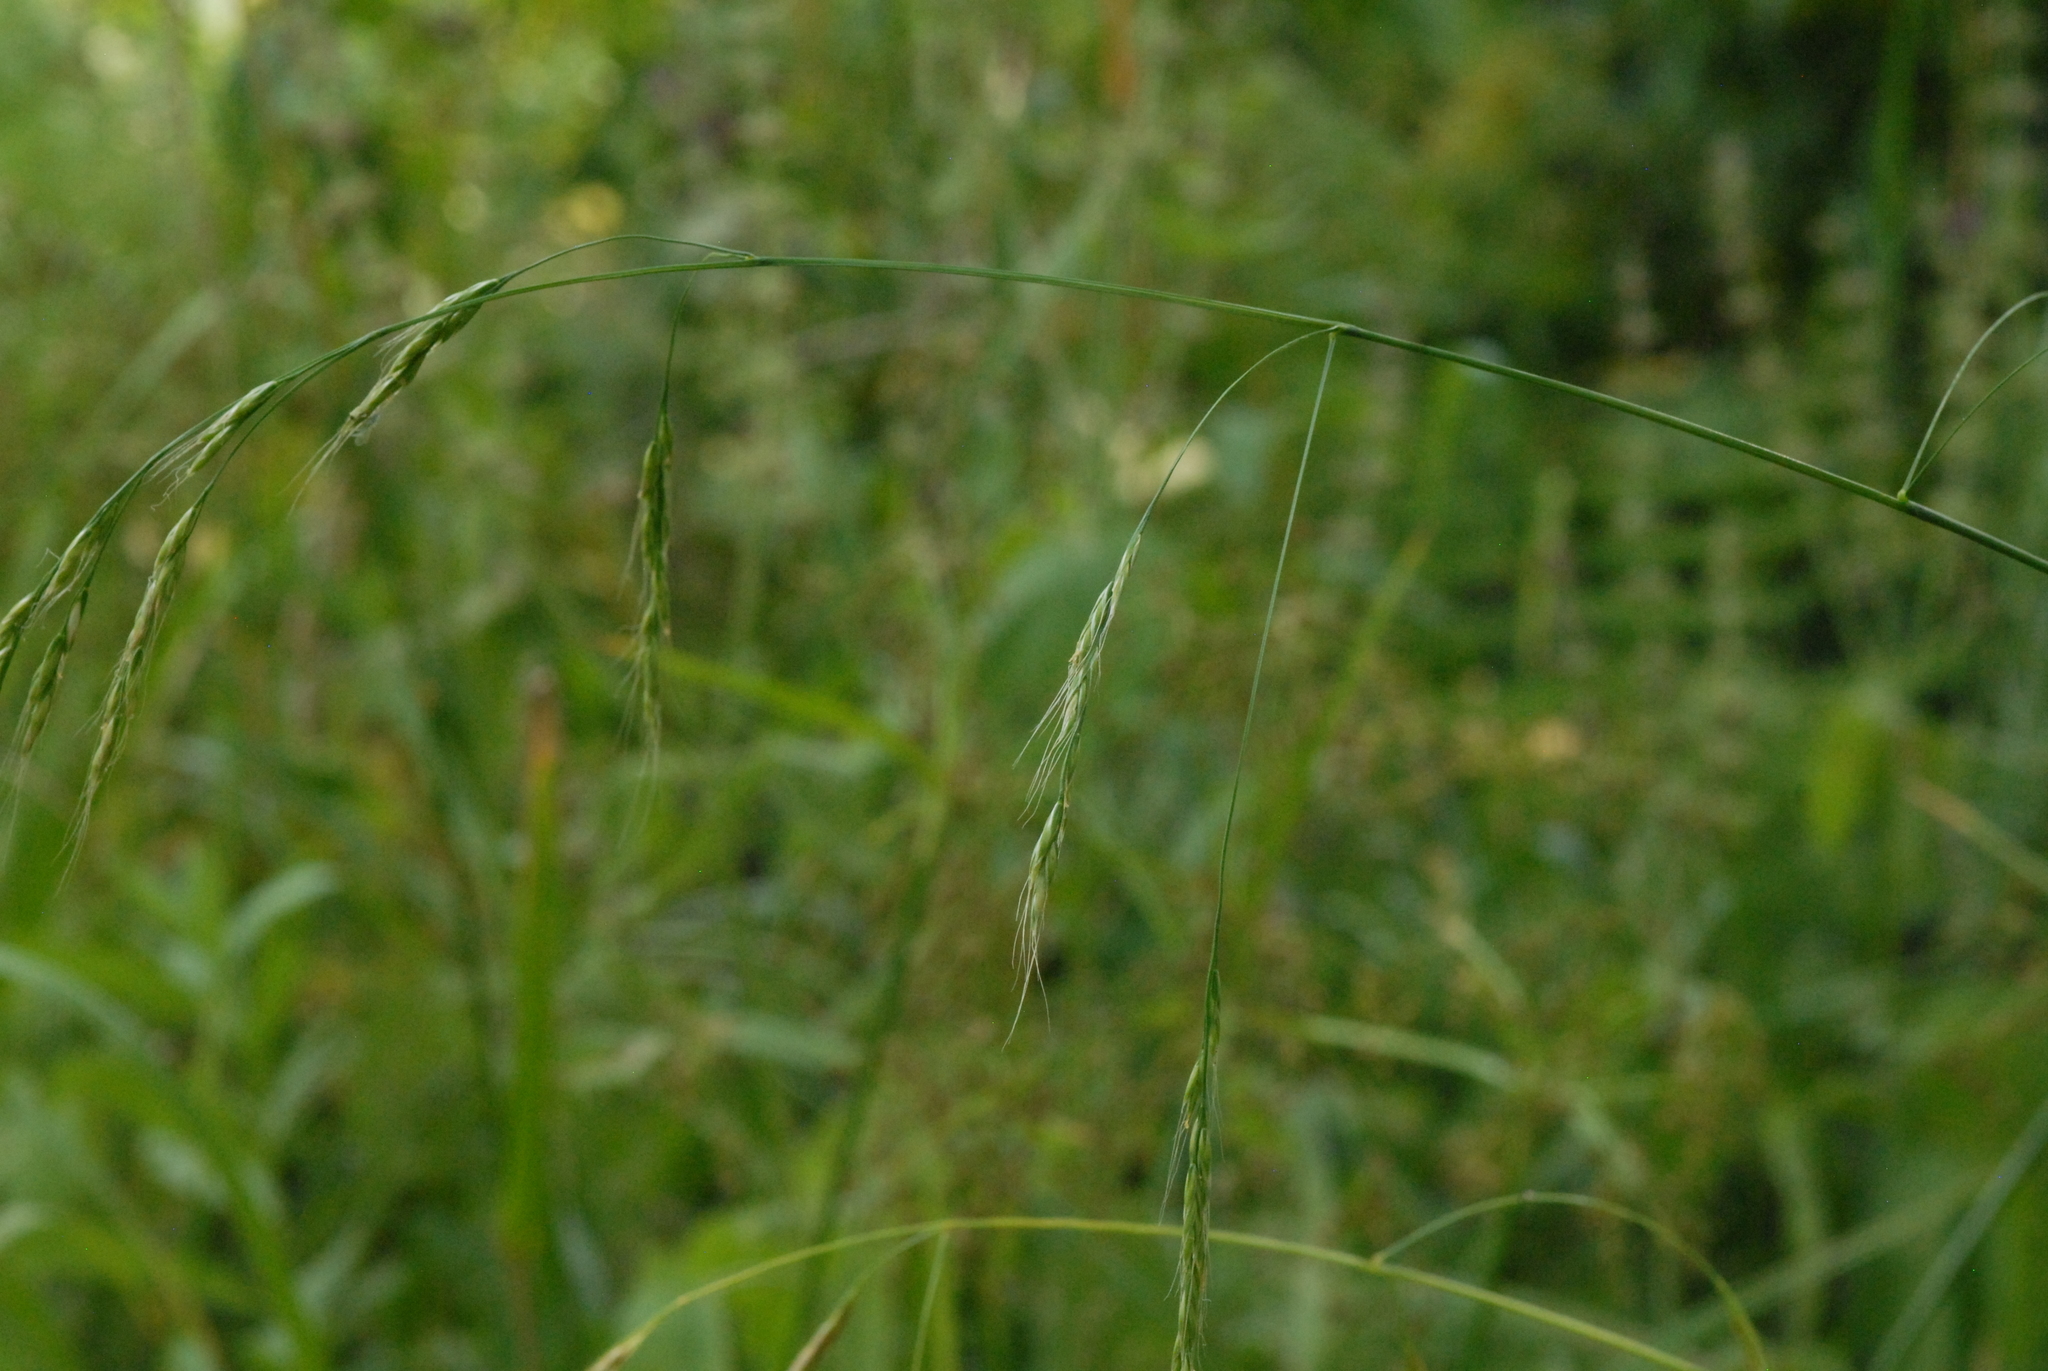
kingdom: Plantae
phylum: Tracheophyta
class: Liliopsida
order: Poales
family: Poaceae
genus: Lolium
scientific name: Lolium giganteum
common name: Giant fescue
